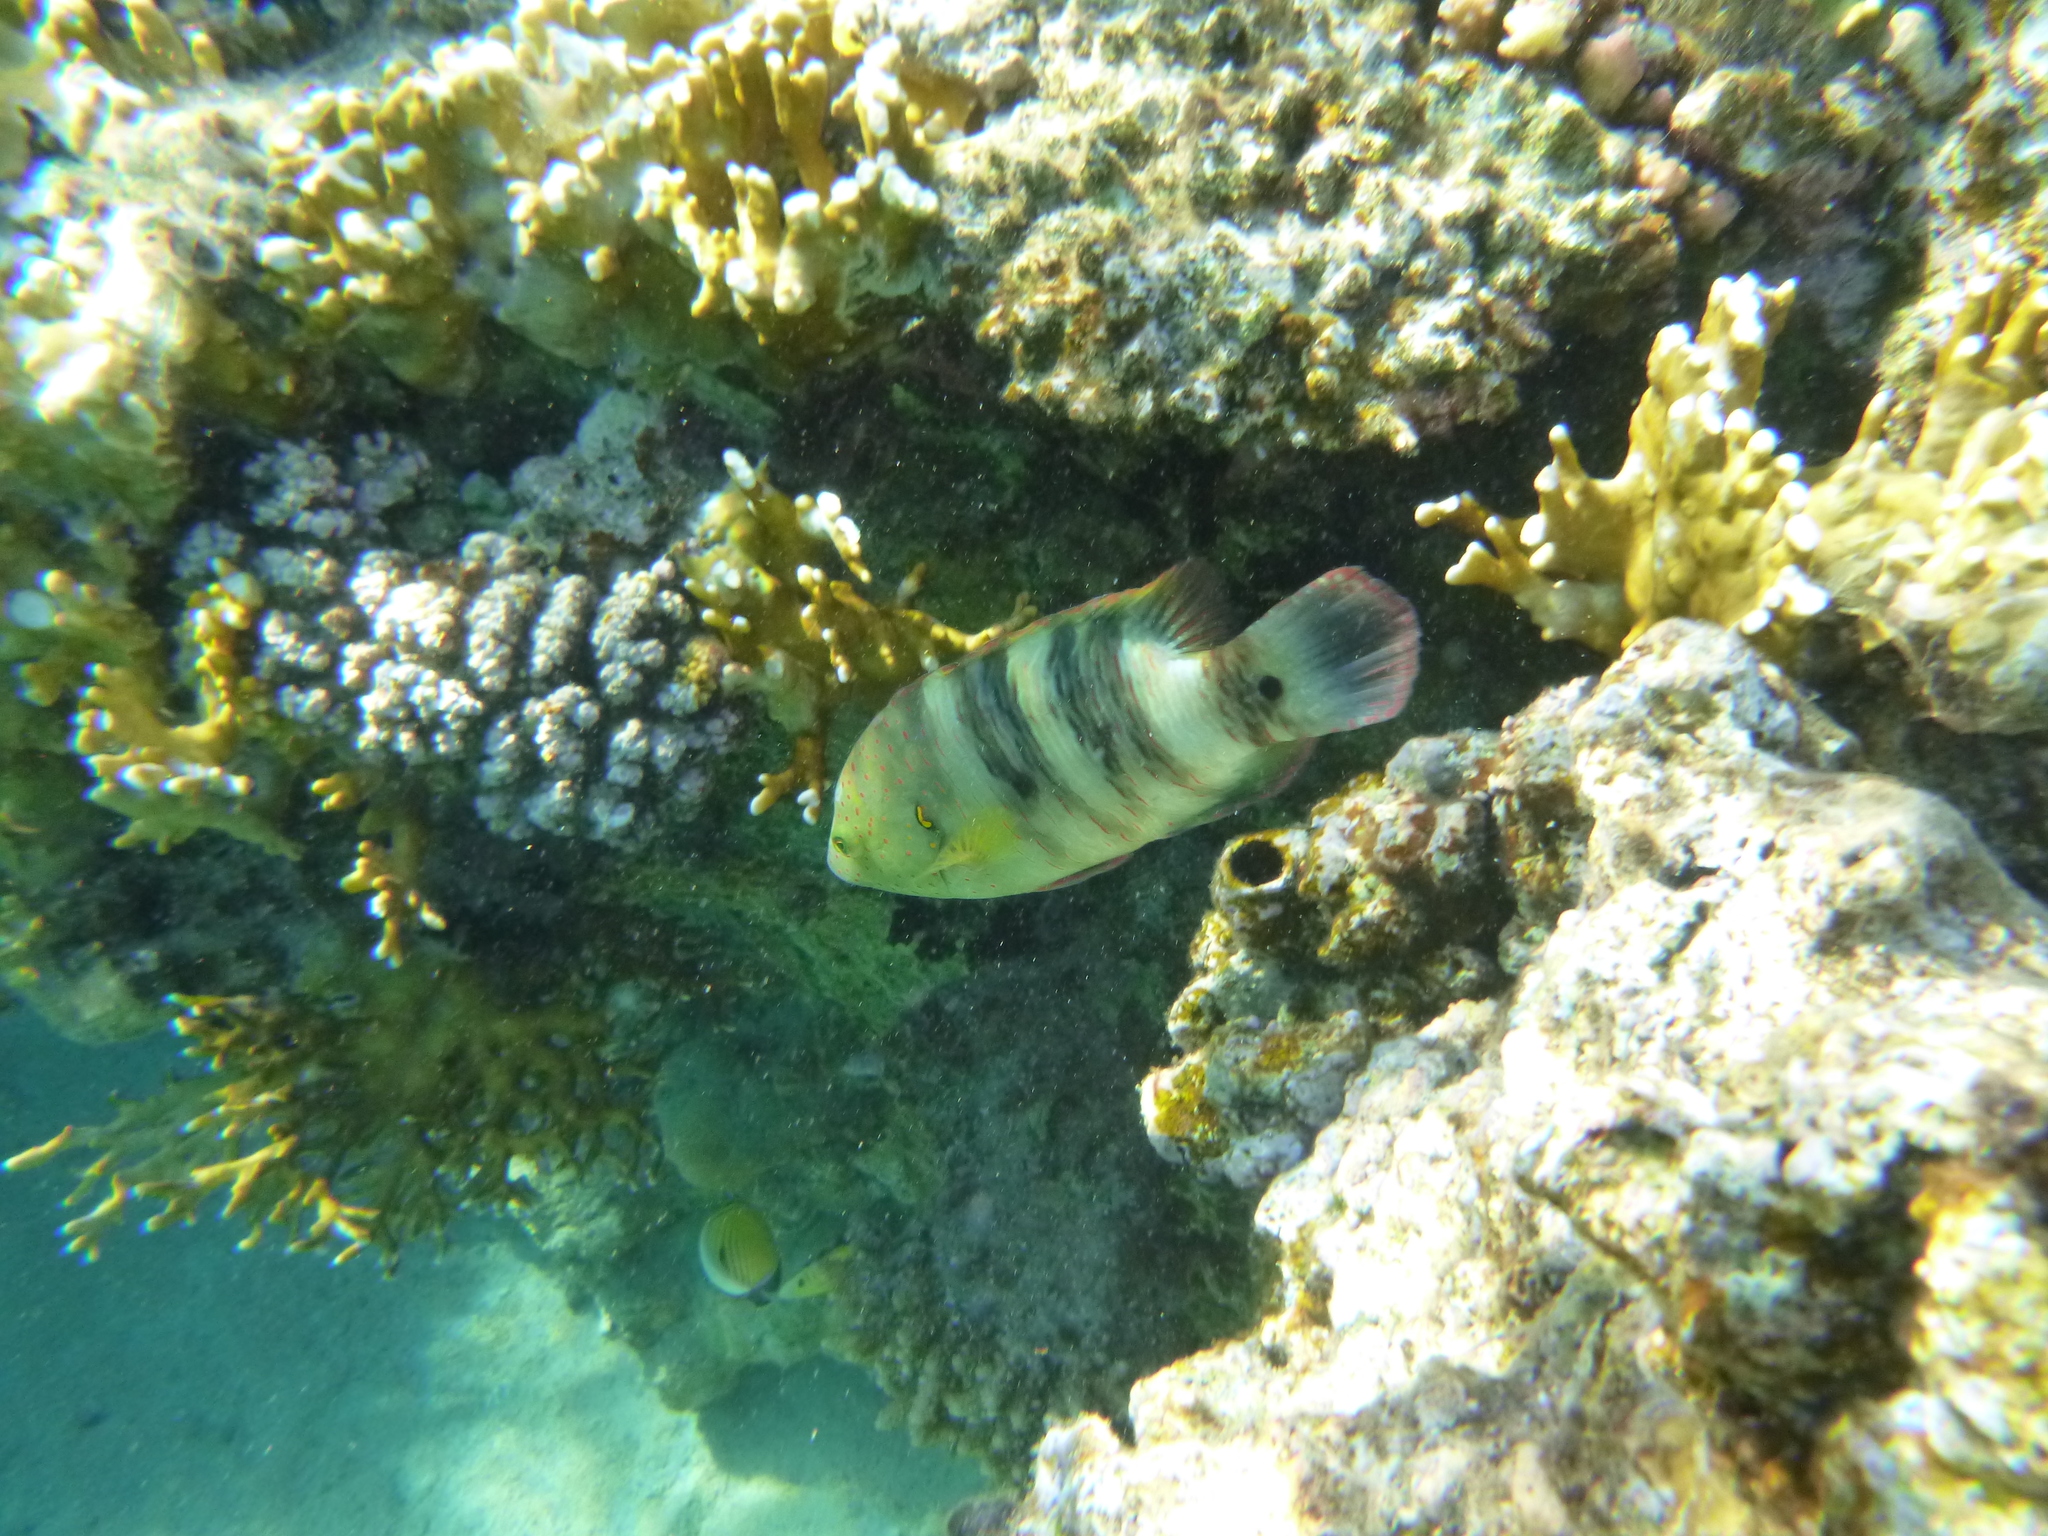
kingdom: Animalia
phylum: Chordata
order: Perciformes
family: Labridae
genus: Cheilinus
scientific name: Cheilinus lunulatus
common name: Broomtail wrasse
